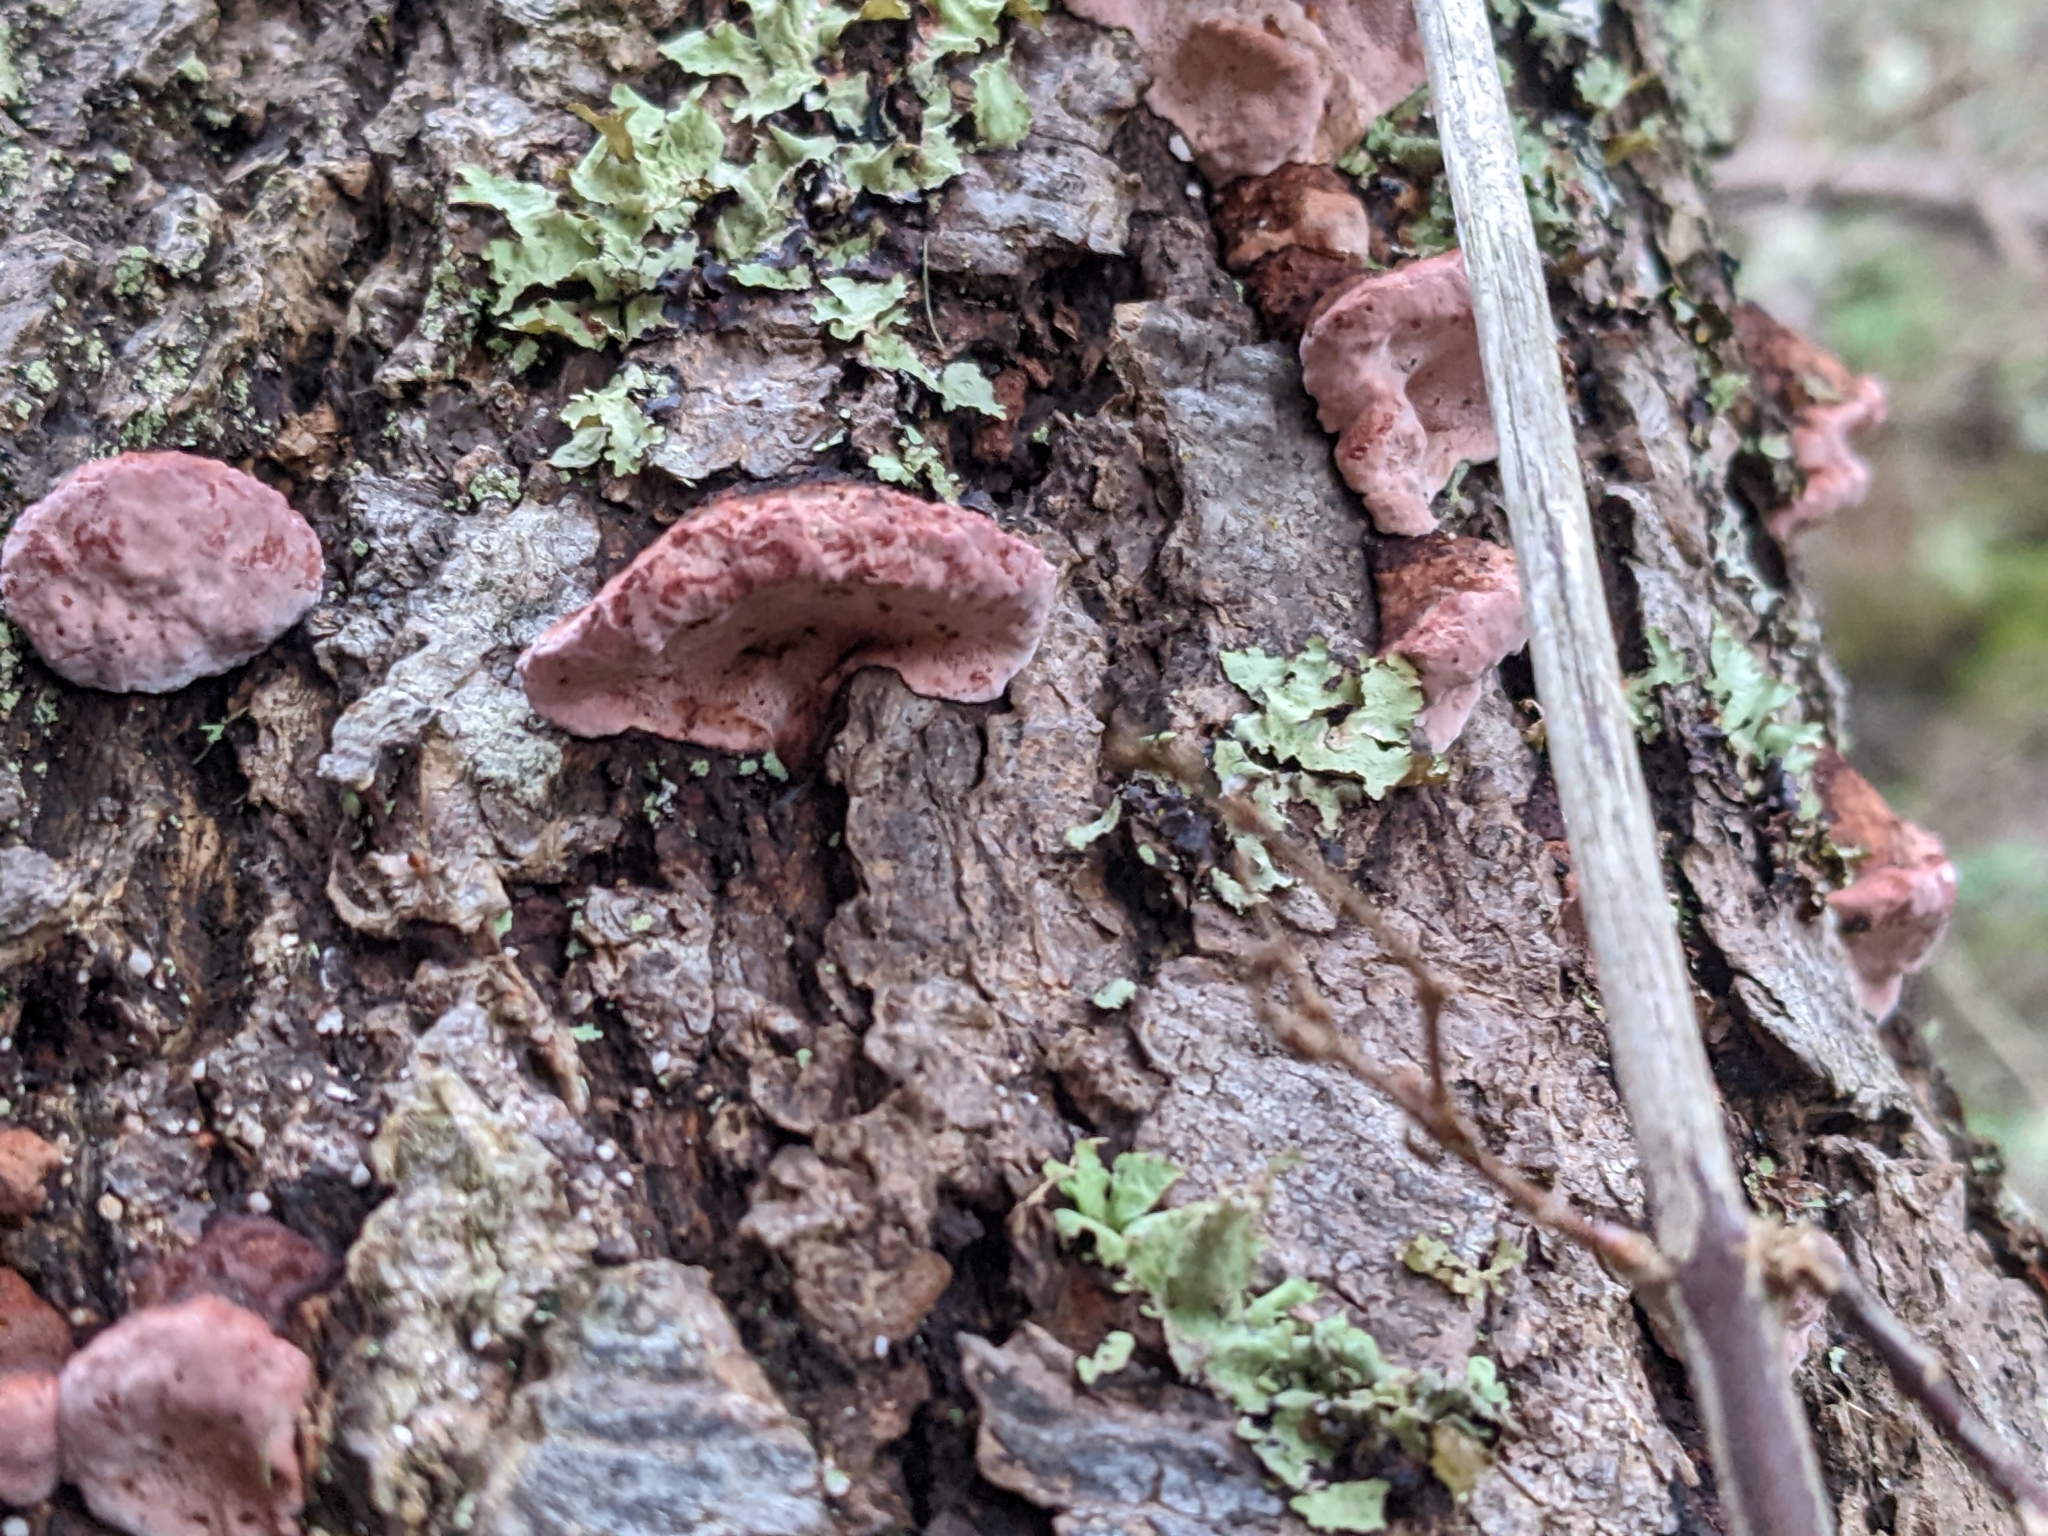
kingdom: Fungi
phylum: Basidiomycota
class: Agaricomycetes
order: Polyporales
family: Fomitopsidaceae
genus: Rhodofomes
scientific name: Rhodofomes cajanderi
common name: Rosy conk
